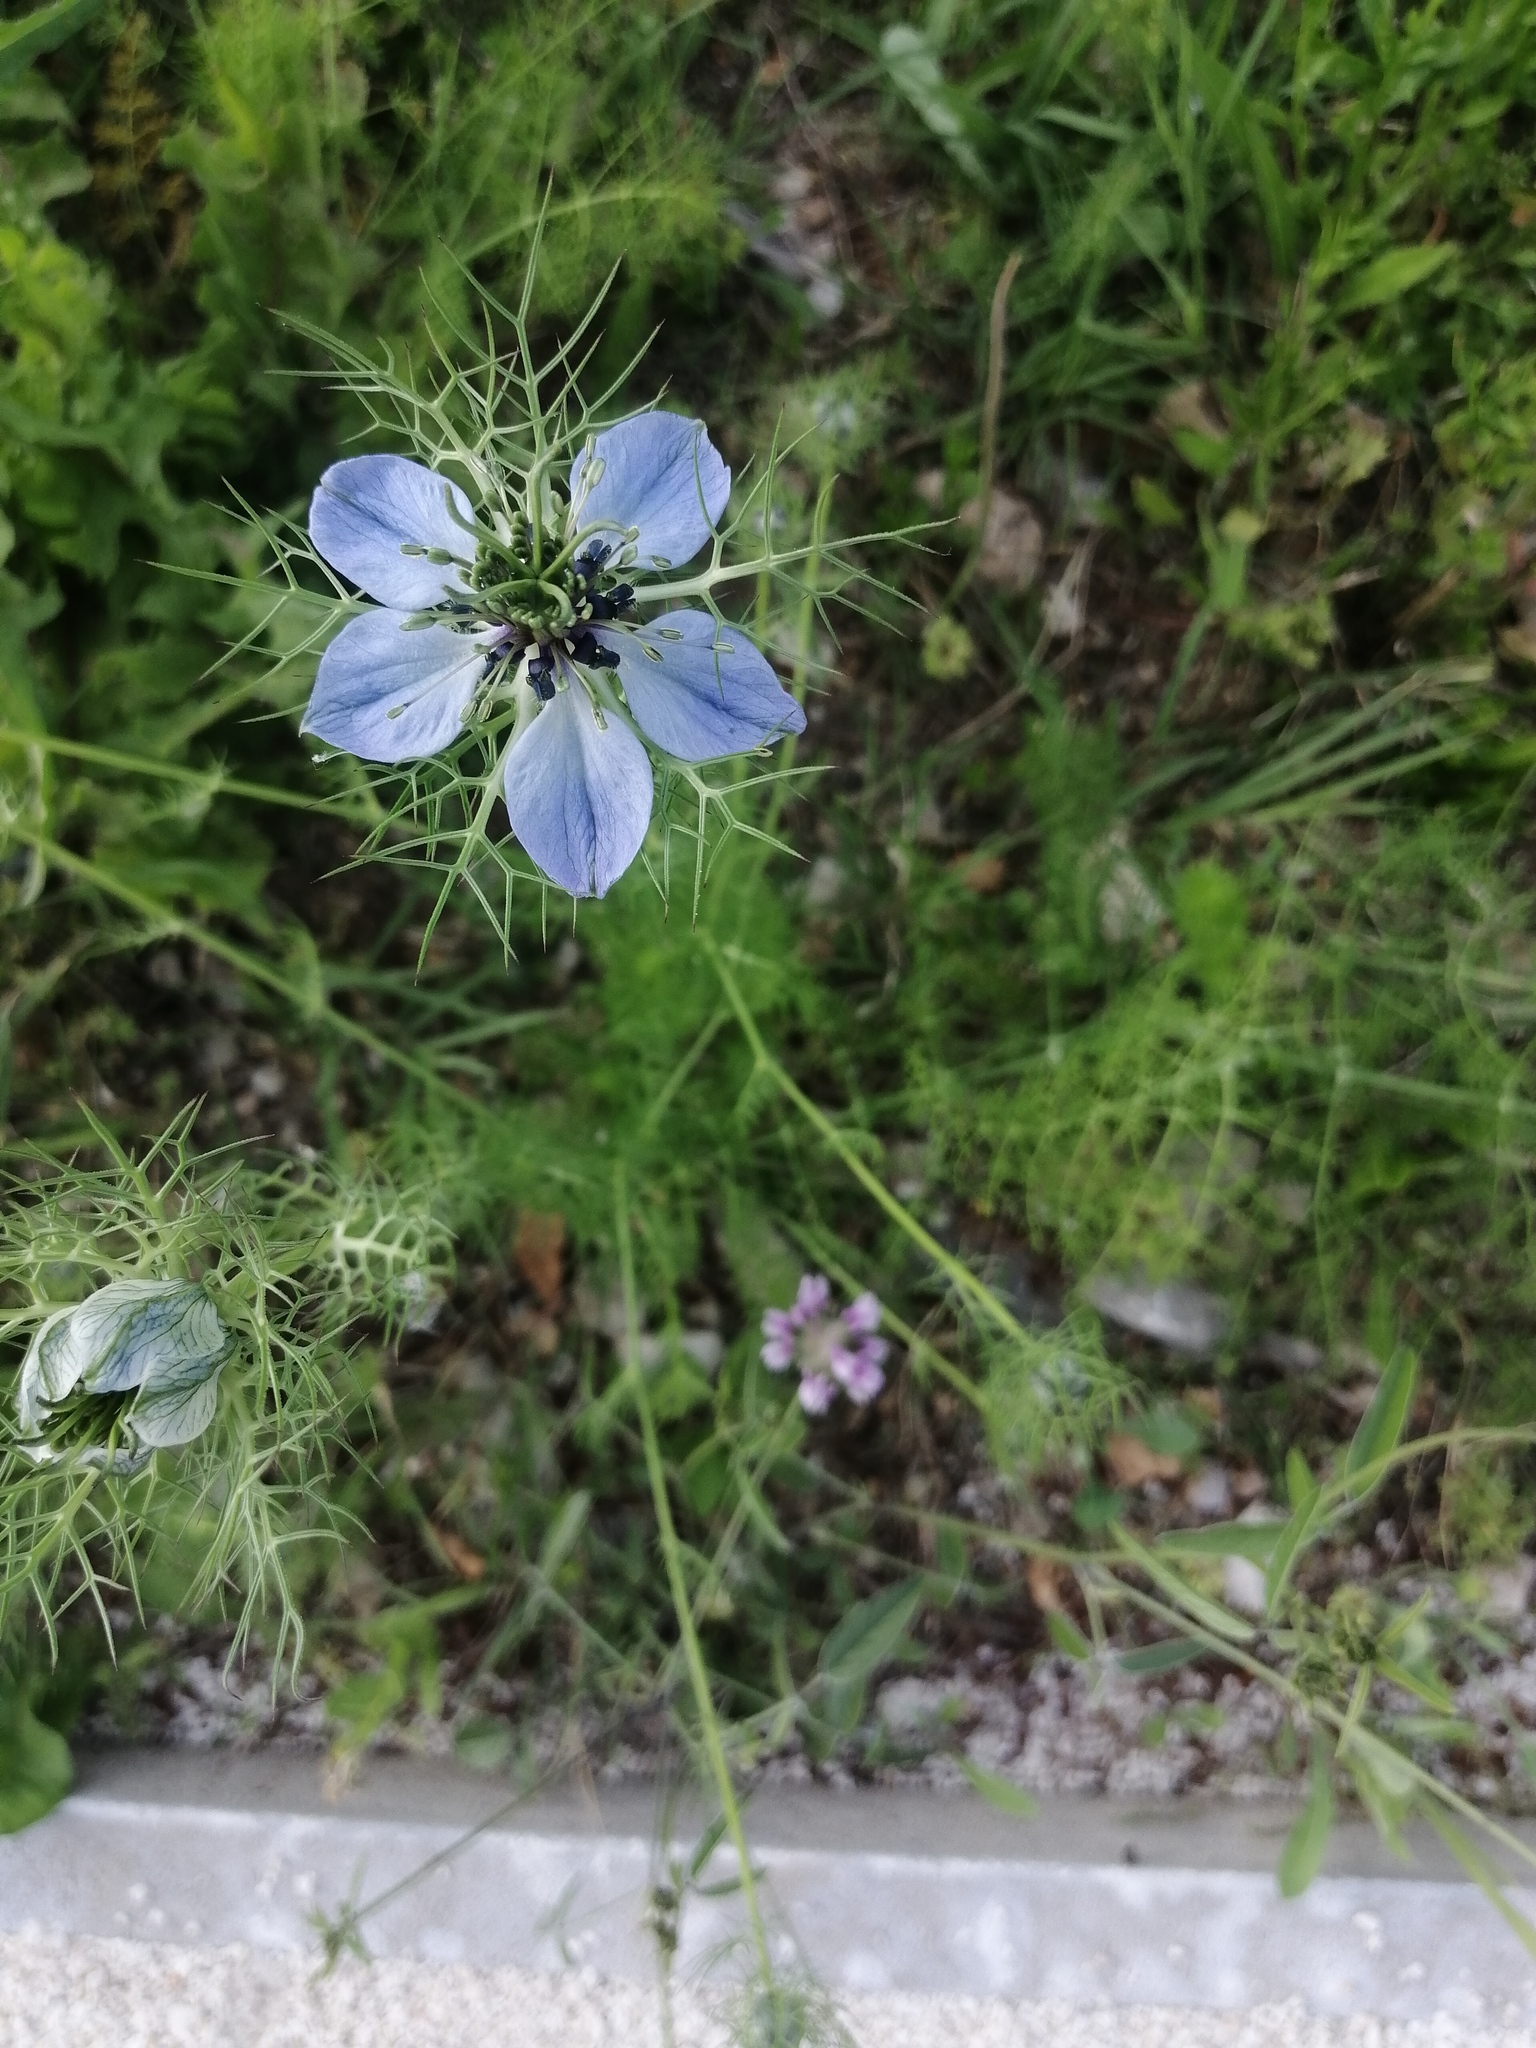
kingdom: Plantae
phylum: Tracheophyta
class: Magnoliopsida
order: Ranunculales
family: Ranunculaceae
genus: Nigella
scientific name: Nigella damascena
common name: Love-in-a-mist
